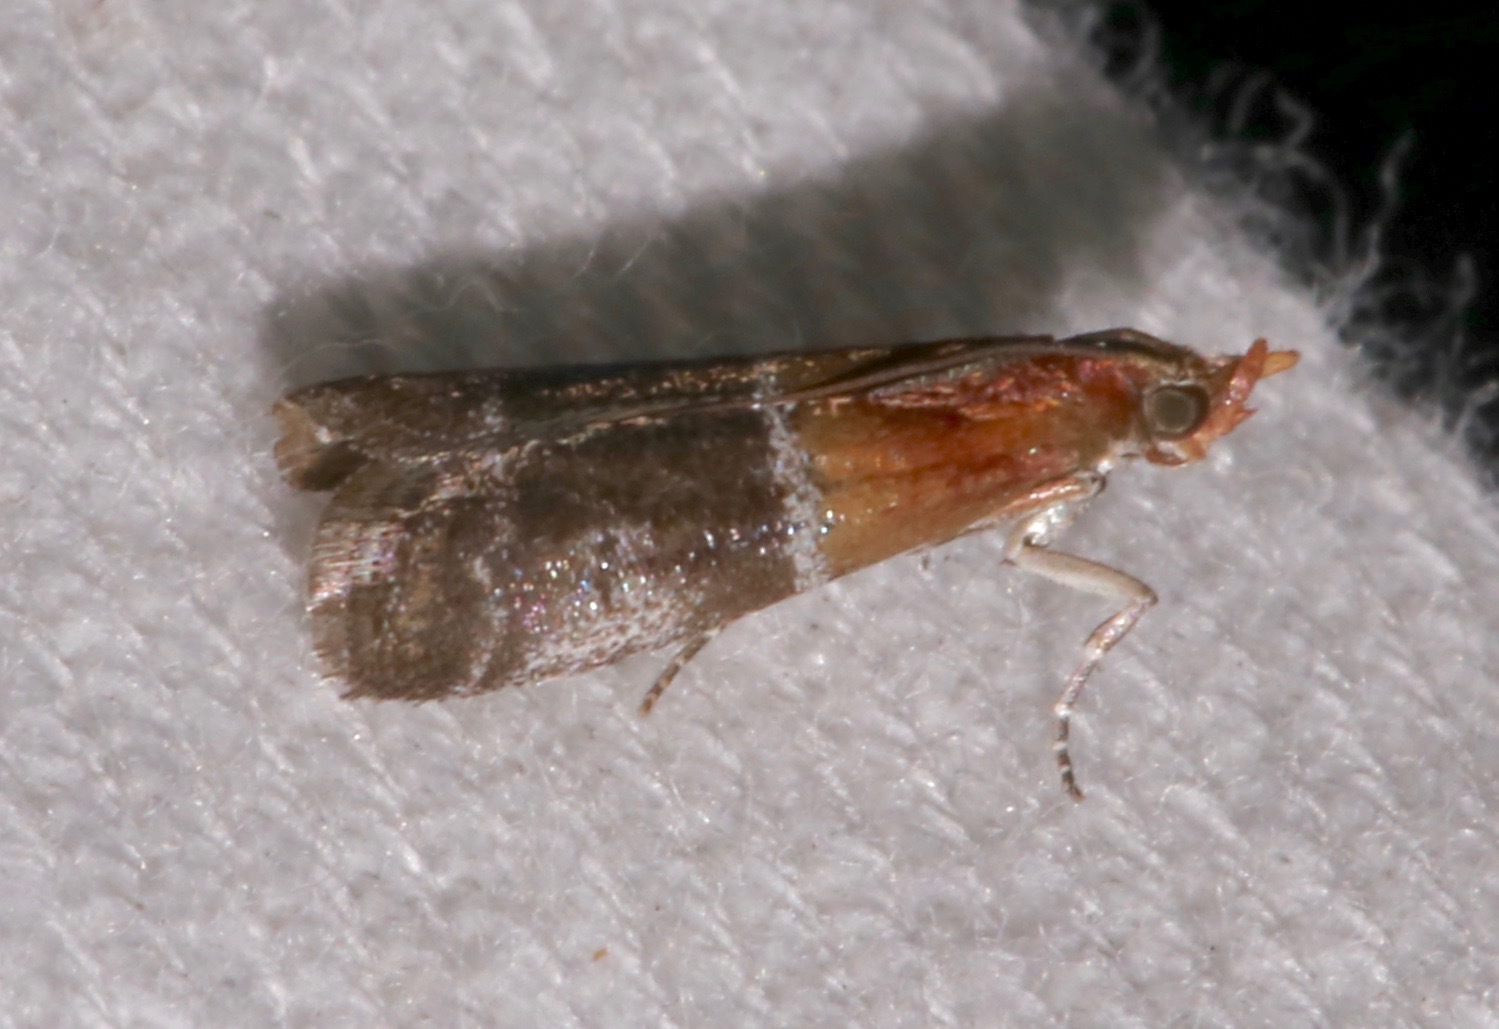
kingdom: Animalia
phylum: Arthropoda
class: Insecta
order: Lepidoptera
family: Pyralidae
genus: Moodna
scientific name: Moodna pallidostrinella
